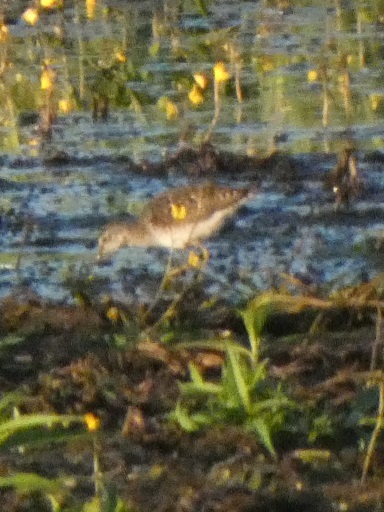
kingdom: Animalia
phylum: Chordata
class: Aves
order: Charadriiformes
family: Scolopacidae
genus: Tringa
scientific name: Tringa glareola
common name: Wood sandpiper
